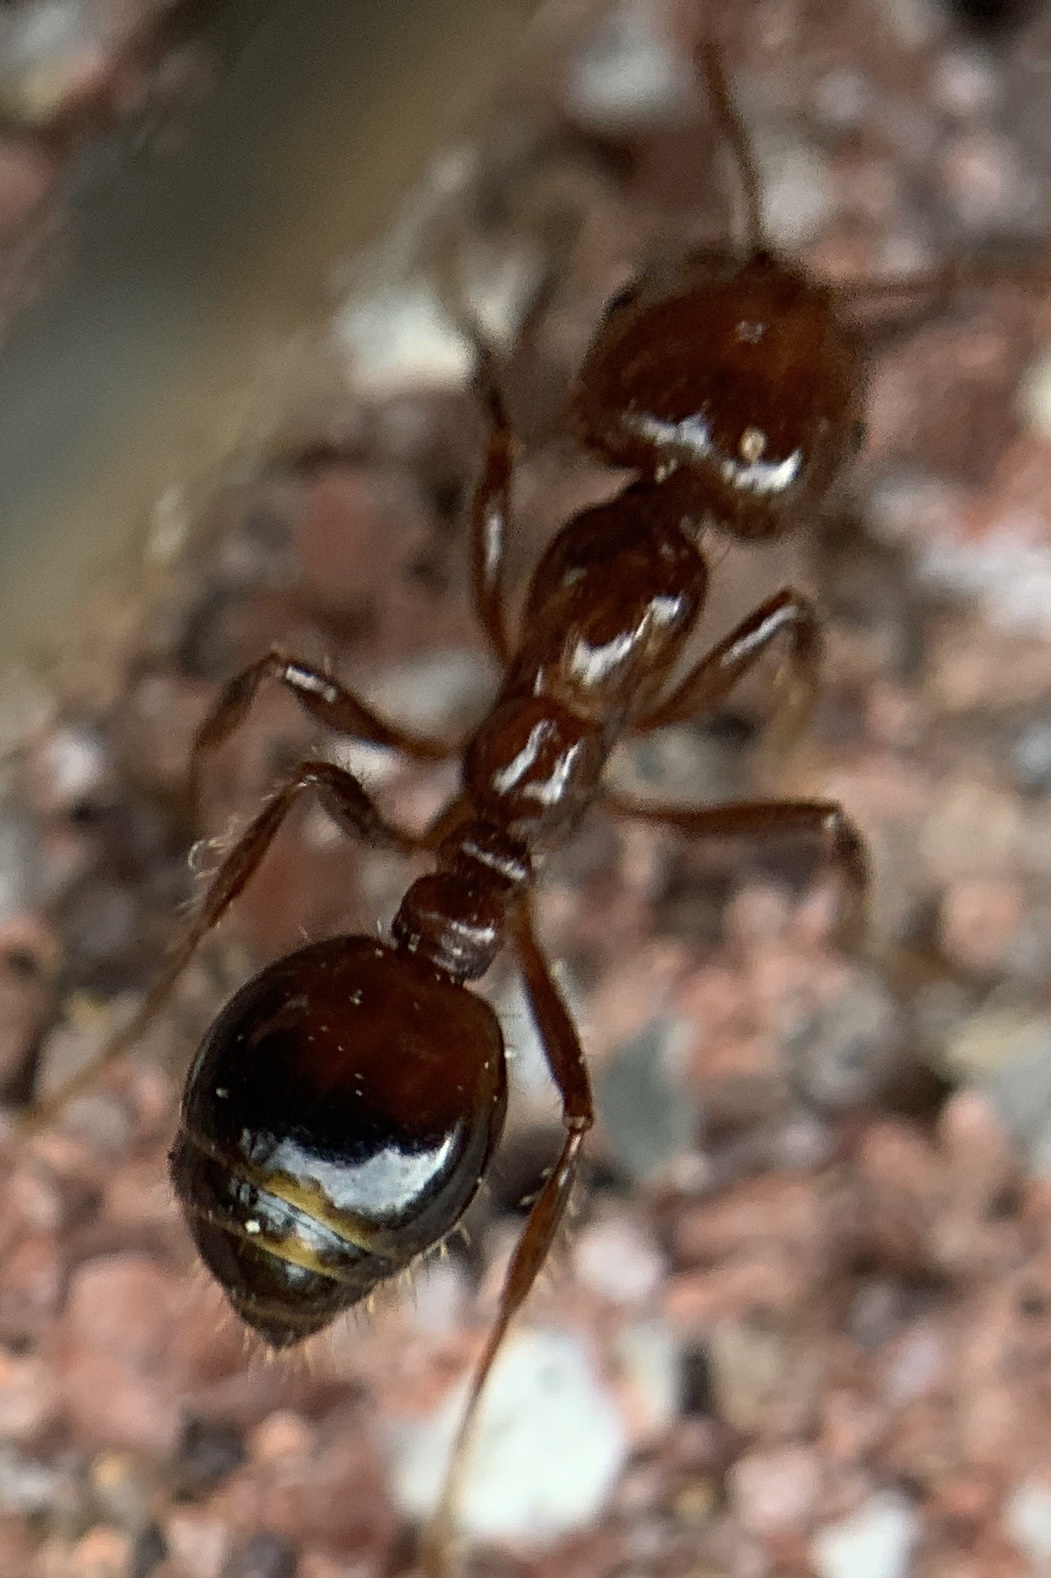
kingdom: Animalia
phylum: Arthropoda
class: Insecta
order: Hymenoptera
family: Formicidae
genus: Solenopsis
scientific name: Solenopsis invicta
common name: Red imported fire ant
